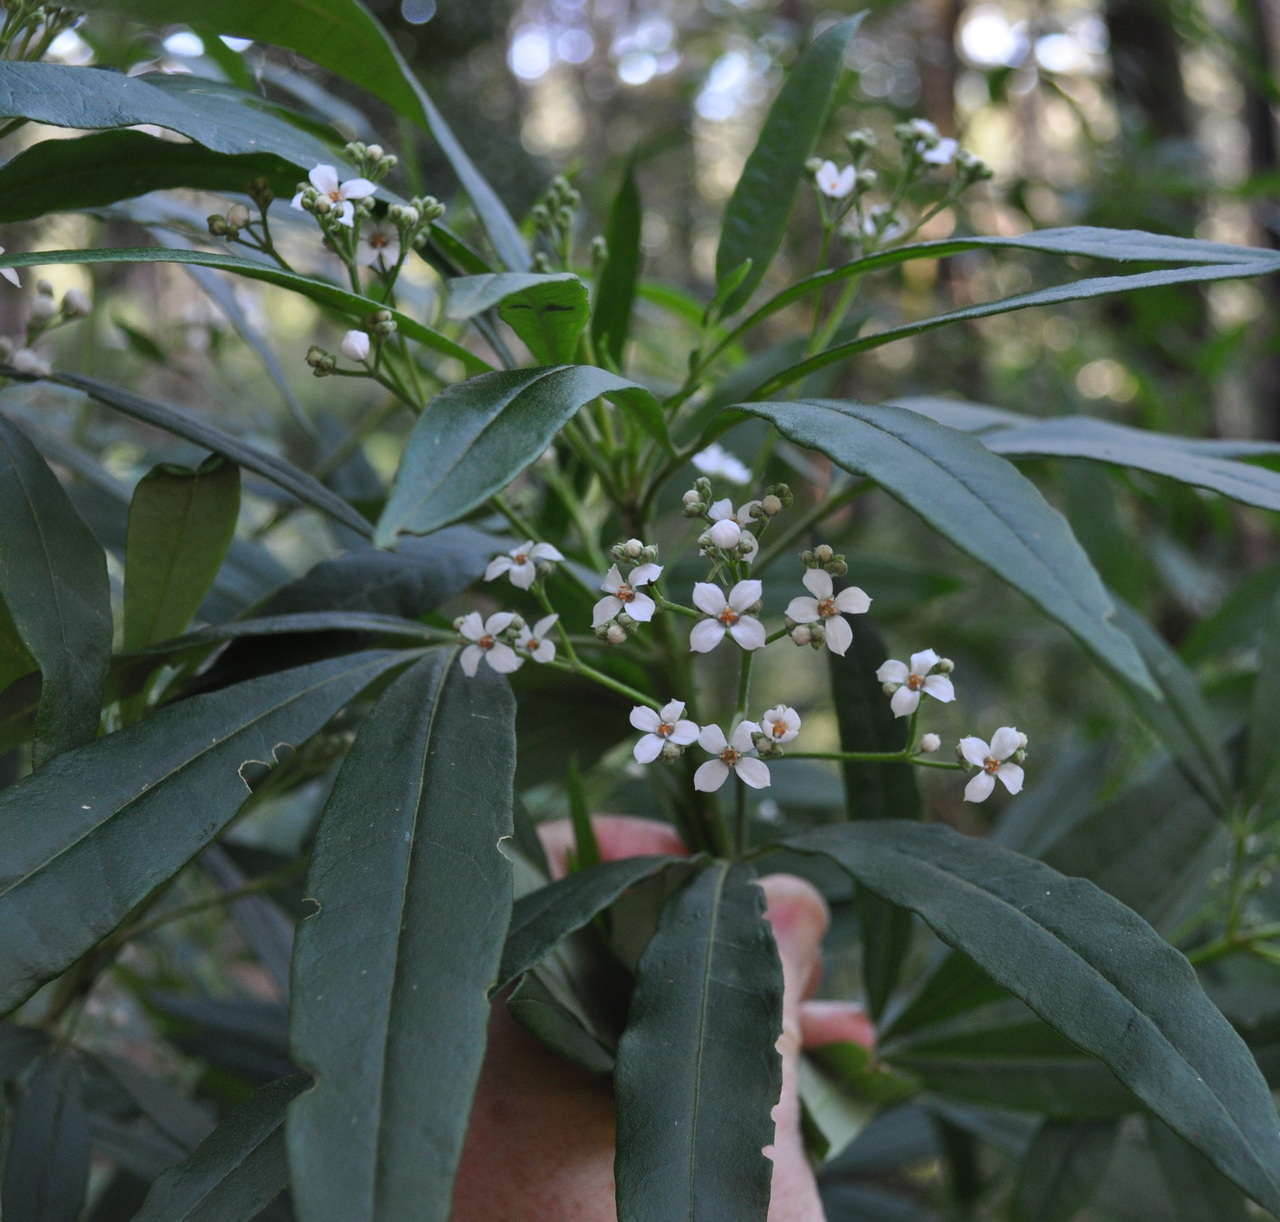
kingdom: Plantae
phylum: Tracheophyta
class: Magnoliopsida
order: Sapindales
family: Rutaceae
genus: Zieria
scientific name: Zieria arborescens
